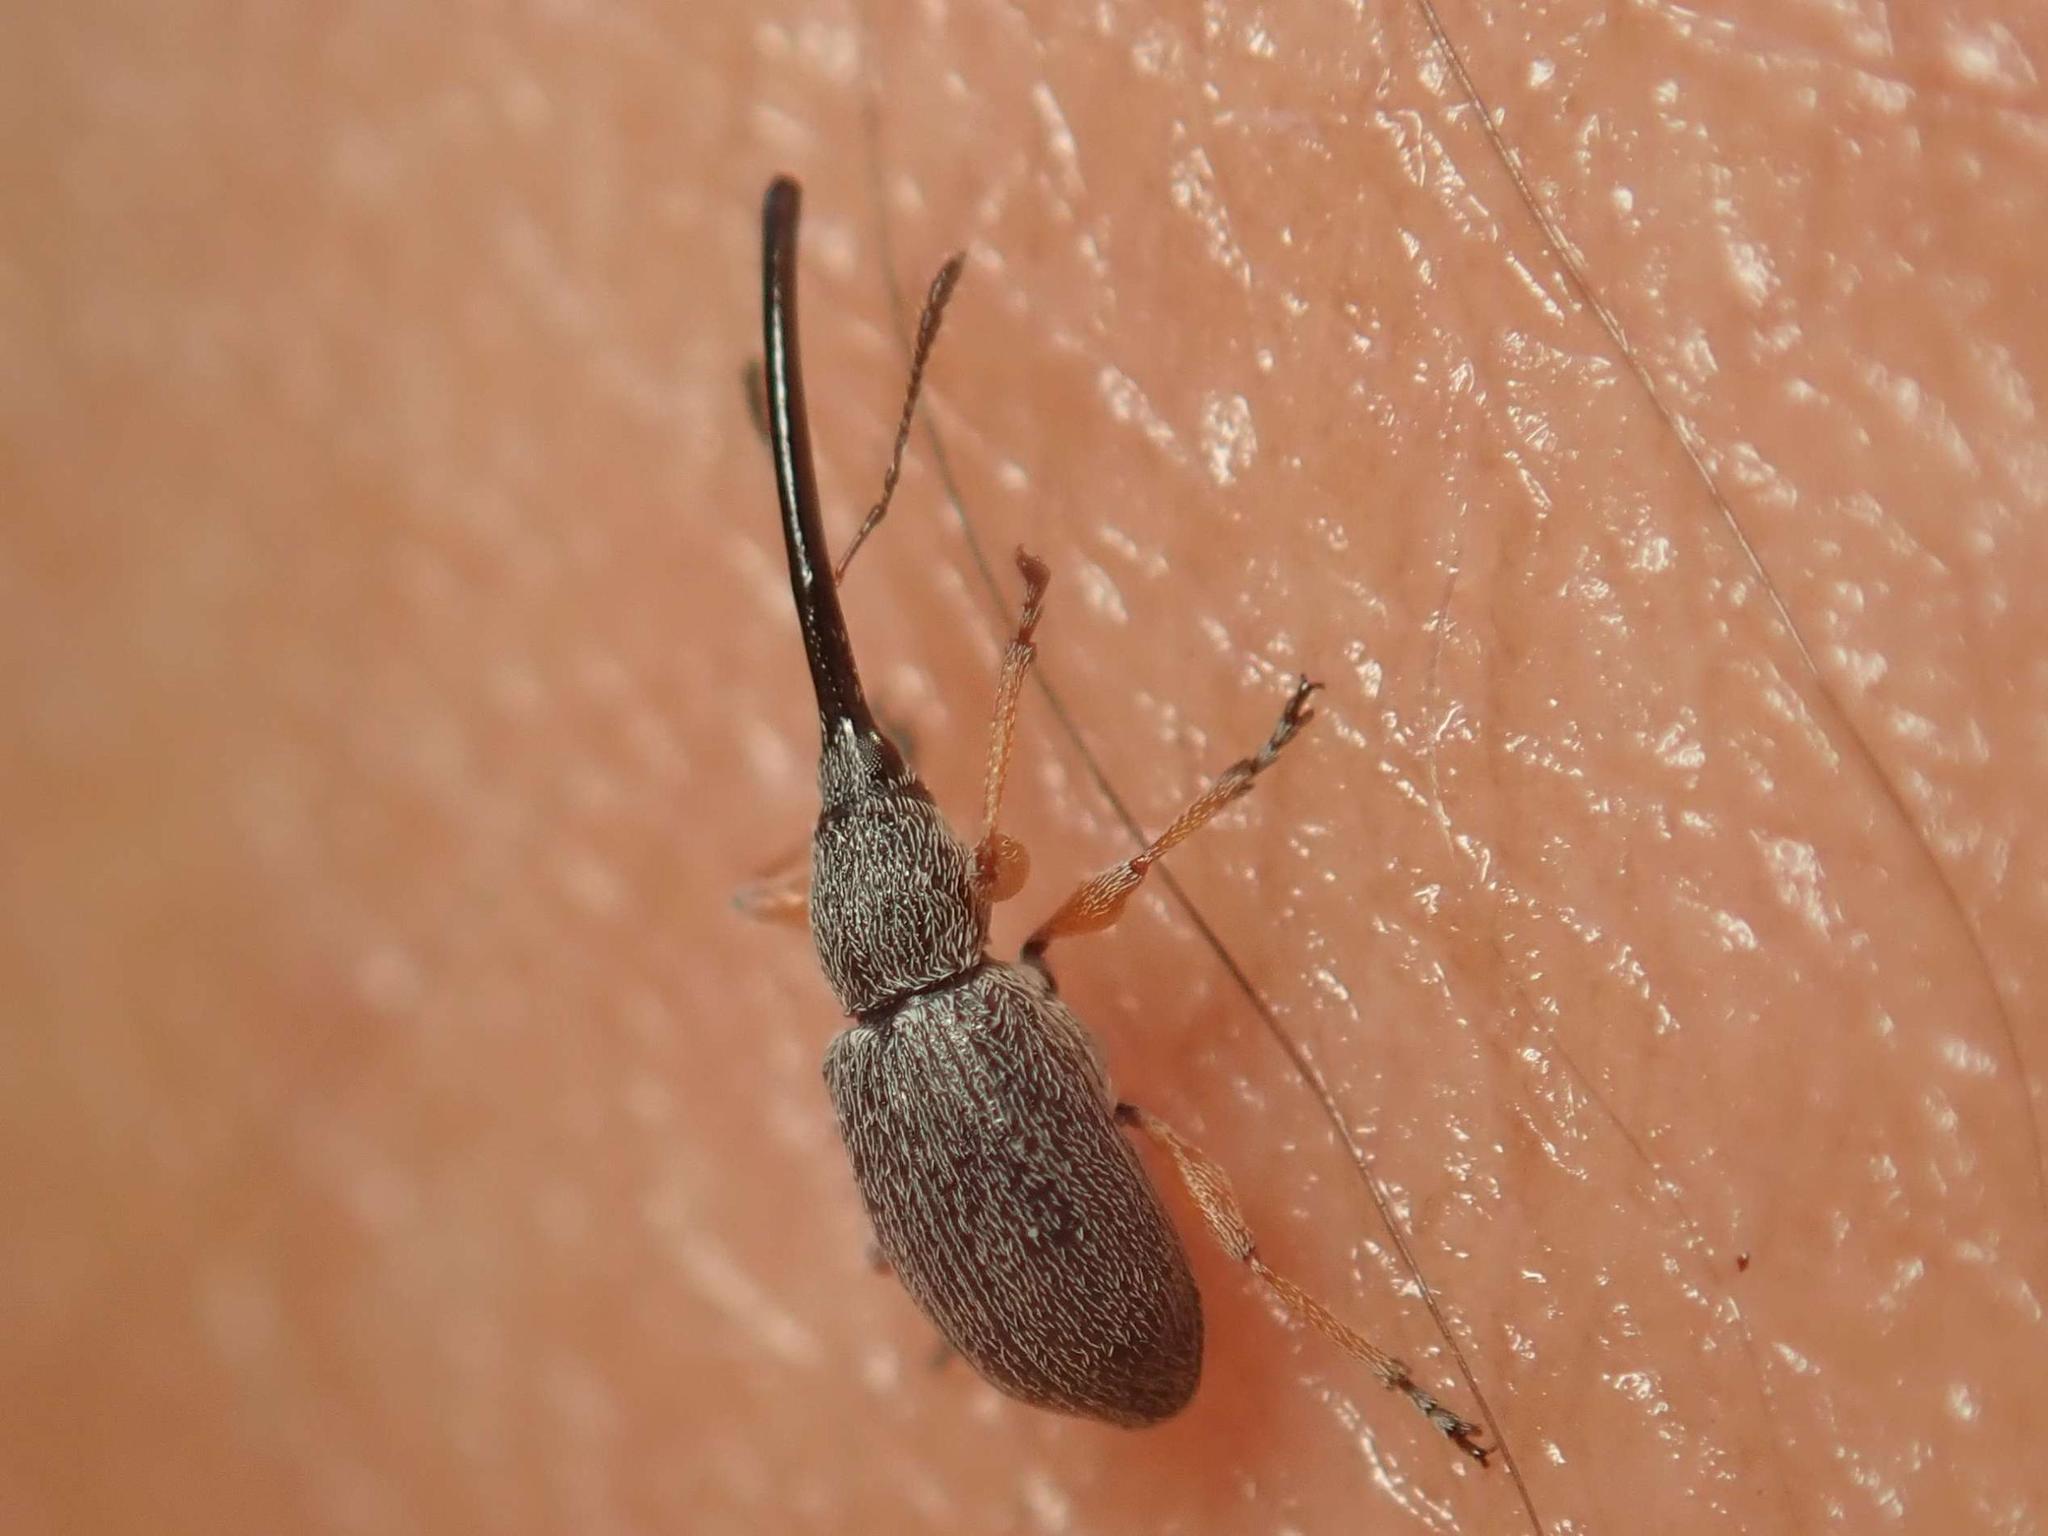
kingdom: Animalia
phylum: Arthropoda
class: Insecta
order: Coleoptera
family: Brentidae
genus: Rhopalapion
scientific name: Rhopalapion longirostre
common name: Hollyhock weevil
